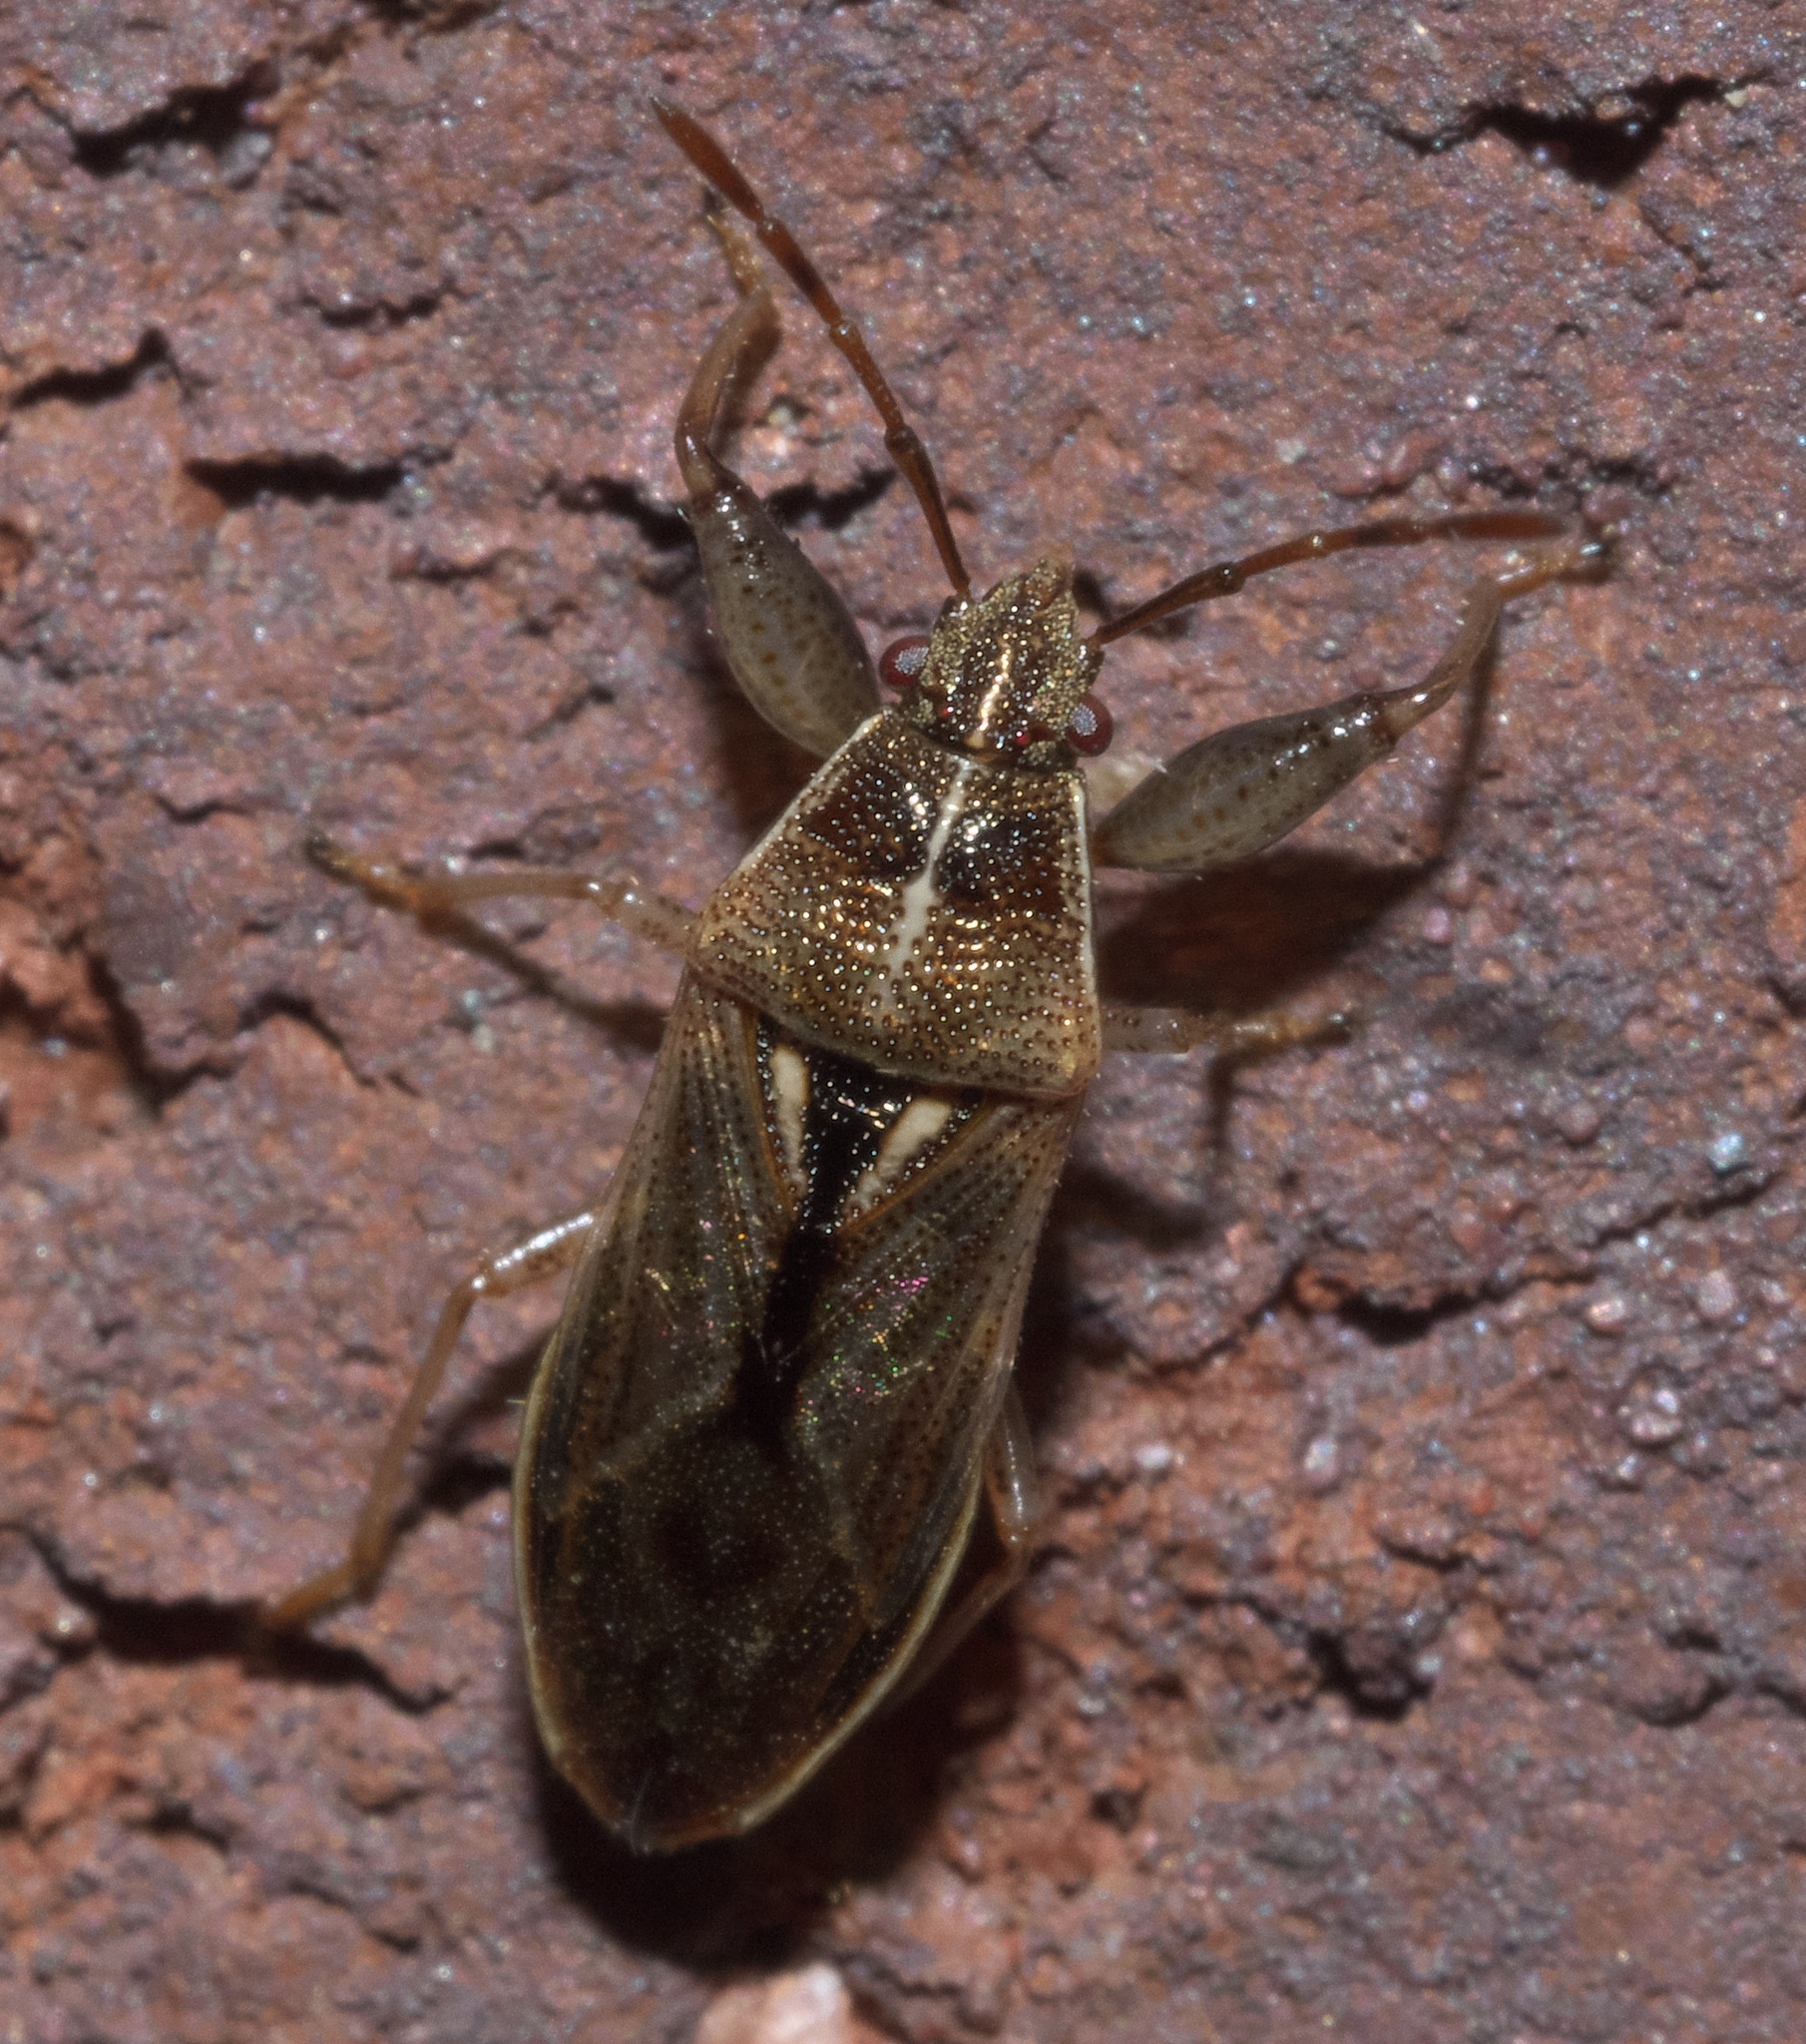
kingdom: Animalia
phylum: Arthropoda
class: Insecta
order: Hemiptera
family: Pachygronthidae
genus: Oedancala
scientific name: Oedancala dorsalis
